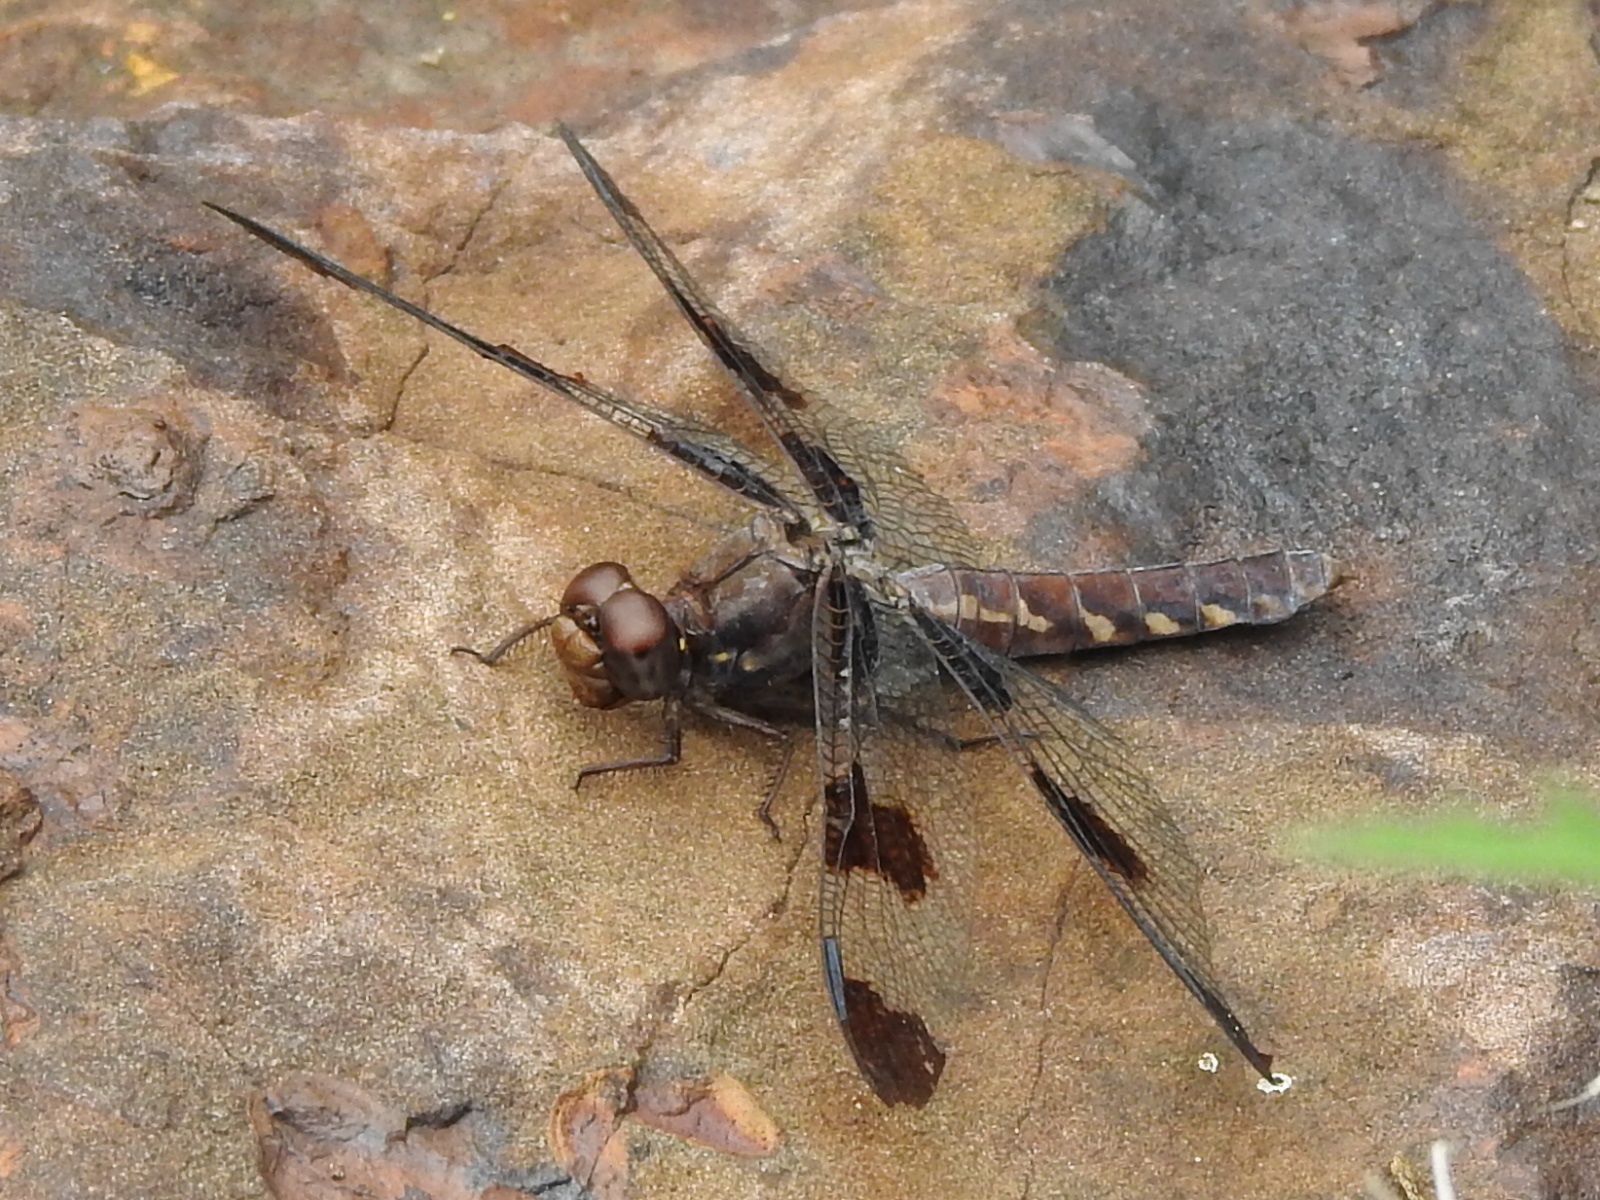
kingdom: Animalia
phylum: Arthropoda
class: Insecta
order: Odonata
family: Libellulidae
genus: Plathemis
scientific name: Plathemis lydia
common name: Common whitetail
